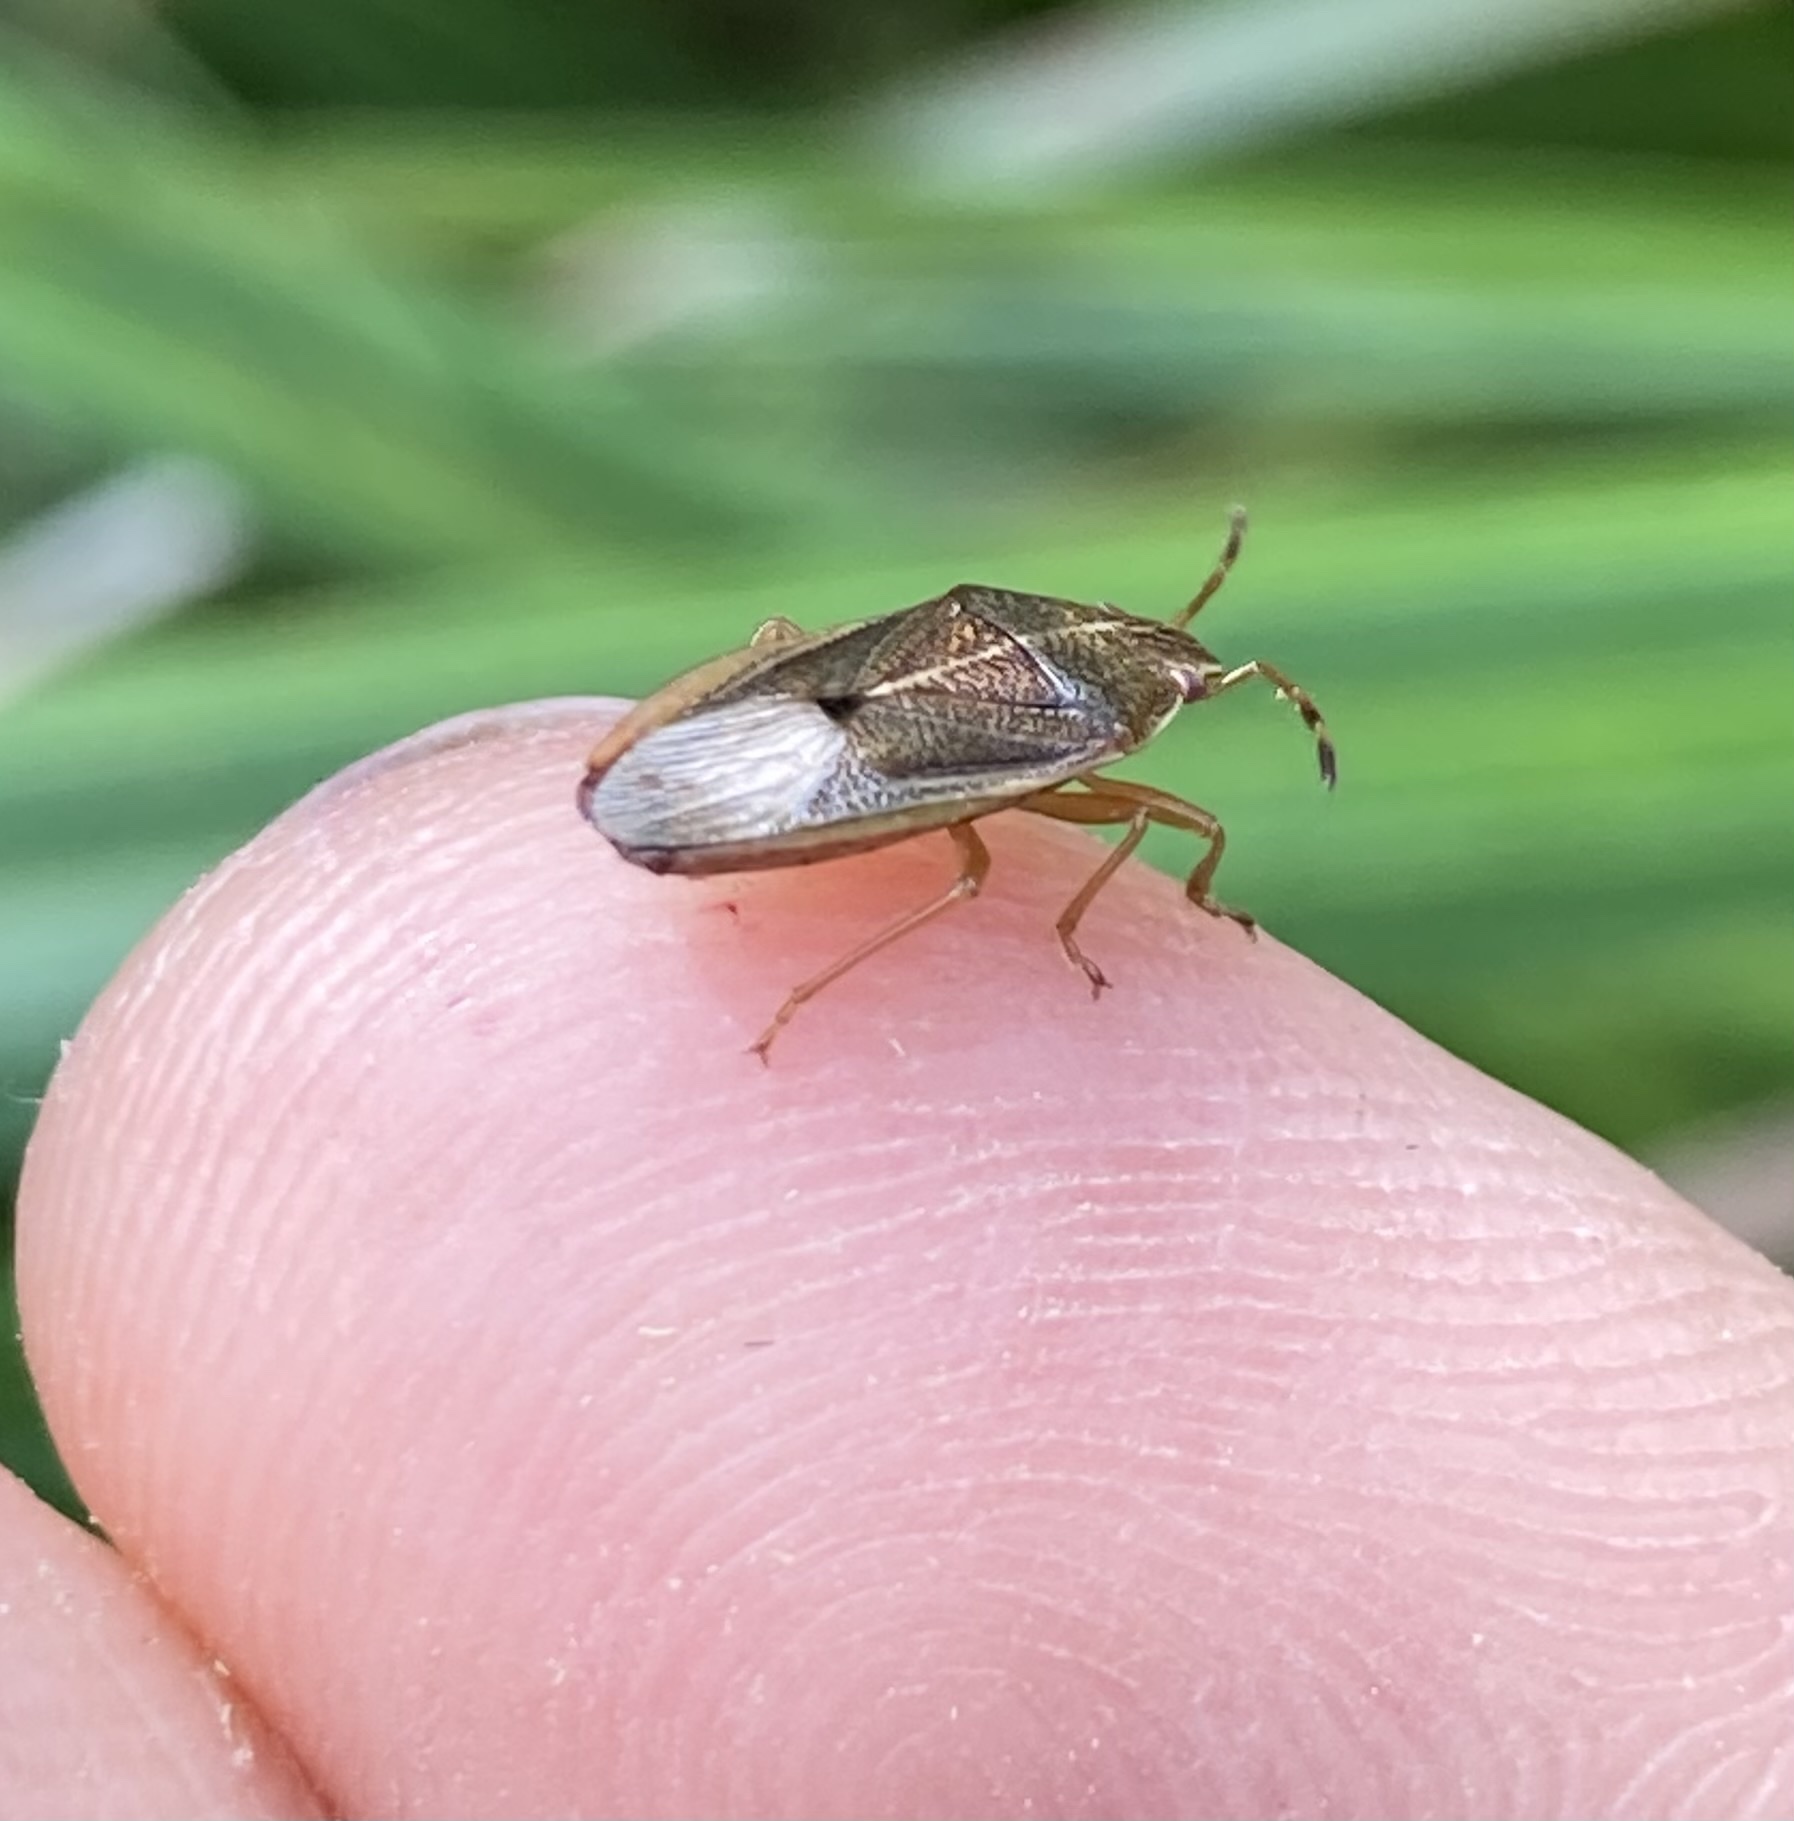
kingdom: Animalia
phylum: Arthropoda
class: Insecta
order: Hemiptera
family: Acanthosomatidae
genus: Rhopalimorpha
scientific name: Rhopalimorpha obscura
